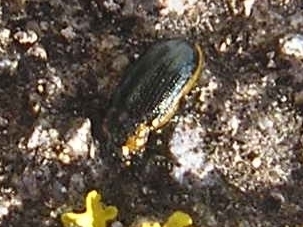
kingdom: Animalia
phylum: Arthropoda
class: Insecta
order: Coleoptera
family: Chrysomelidae
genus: Prasocuris
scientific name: Prasocuris marginella
